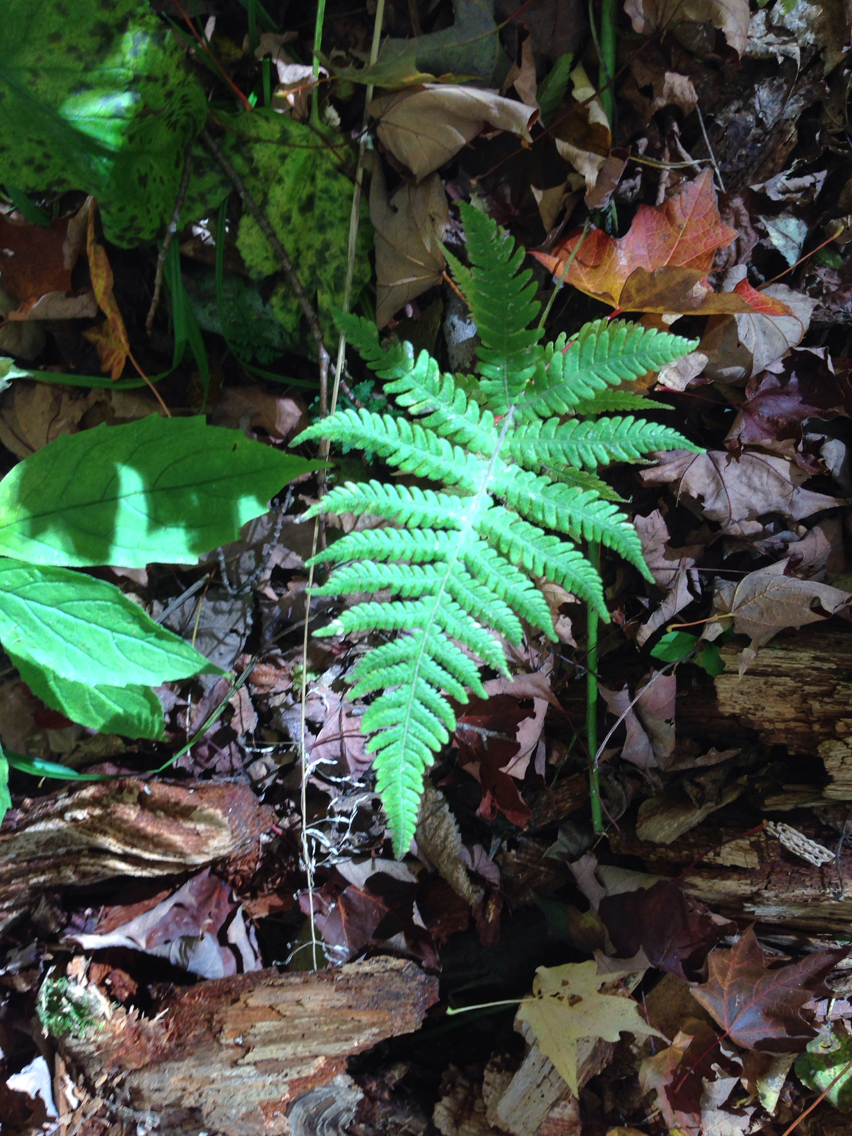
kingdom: Plantae
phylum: Tracheophyta
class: Polypodiopsida
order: Polypodiales
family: Thelypteridaceae
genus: Phegopteris
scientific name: Phegopteris connectilis
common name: Beech fern
